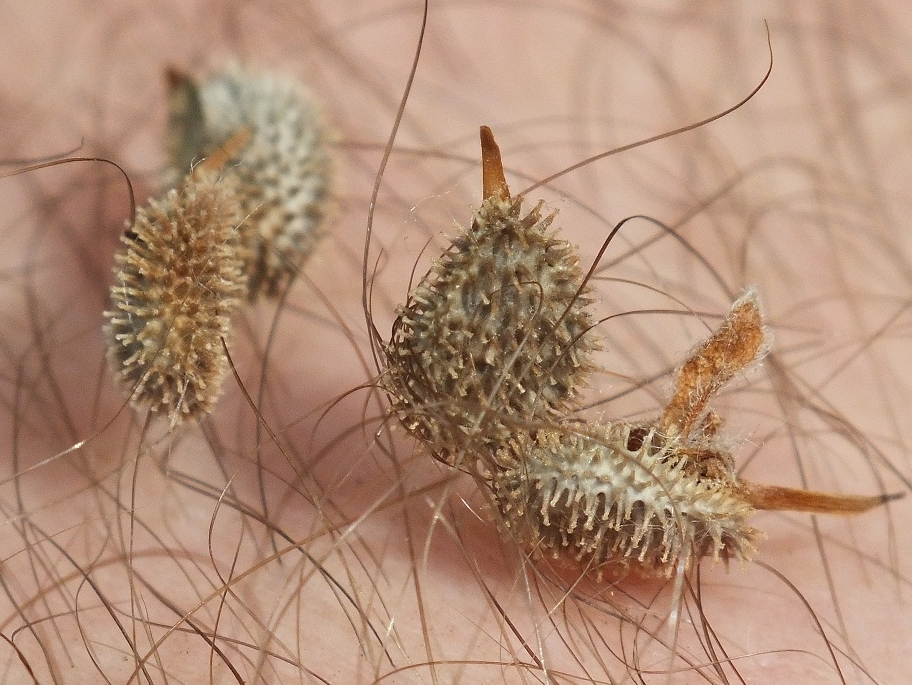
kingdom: Plantae
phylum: Tracheophyta
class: Magnoliopsida
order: Boraginales
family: Boraginaceae
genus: Cynoglossum
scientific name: Cynoglossum officinale
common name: Hound's-tongue
